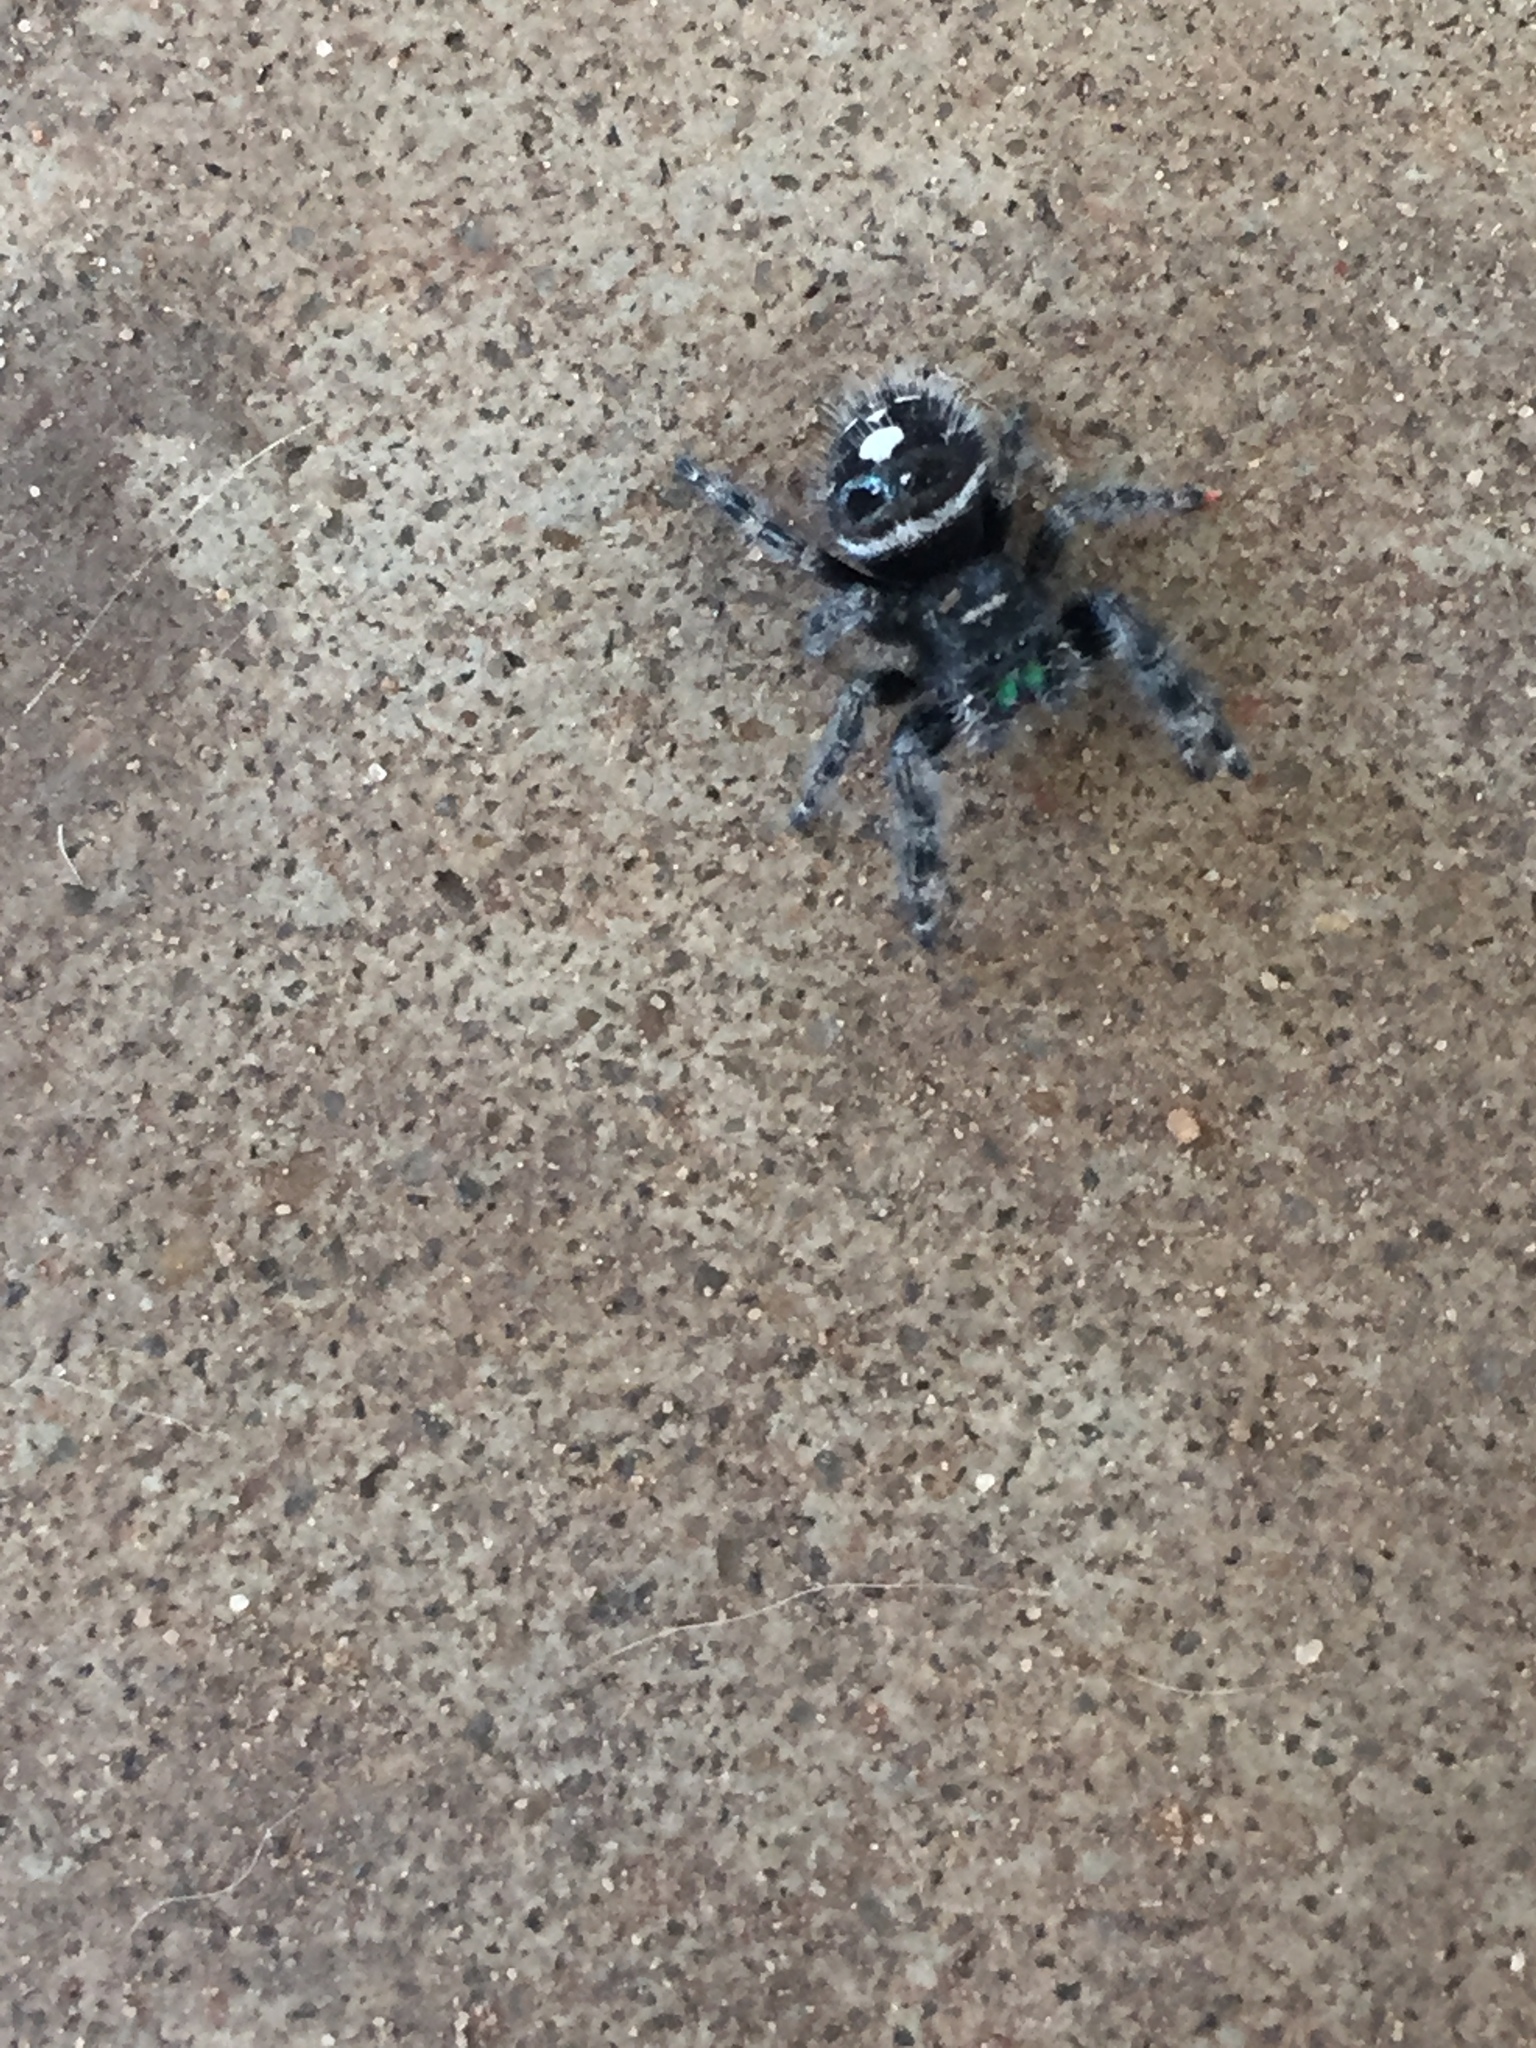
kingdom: Animalia
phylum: Arthropoda
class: Arachnida
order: Araneae
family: Salticidae
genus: Phidippus
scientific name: Phidippus audax
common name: Bold jumper
